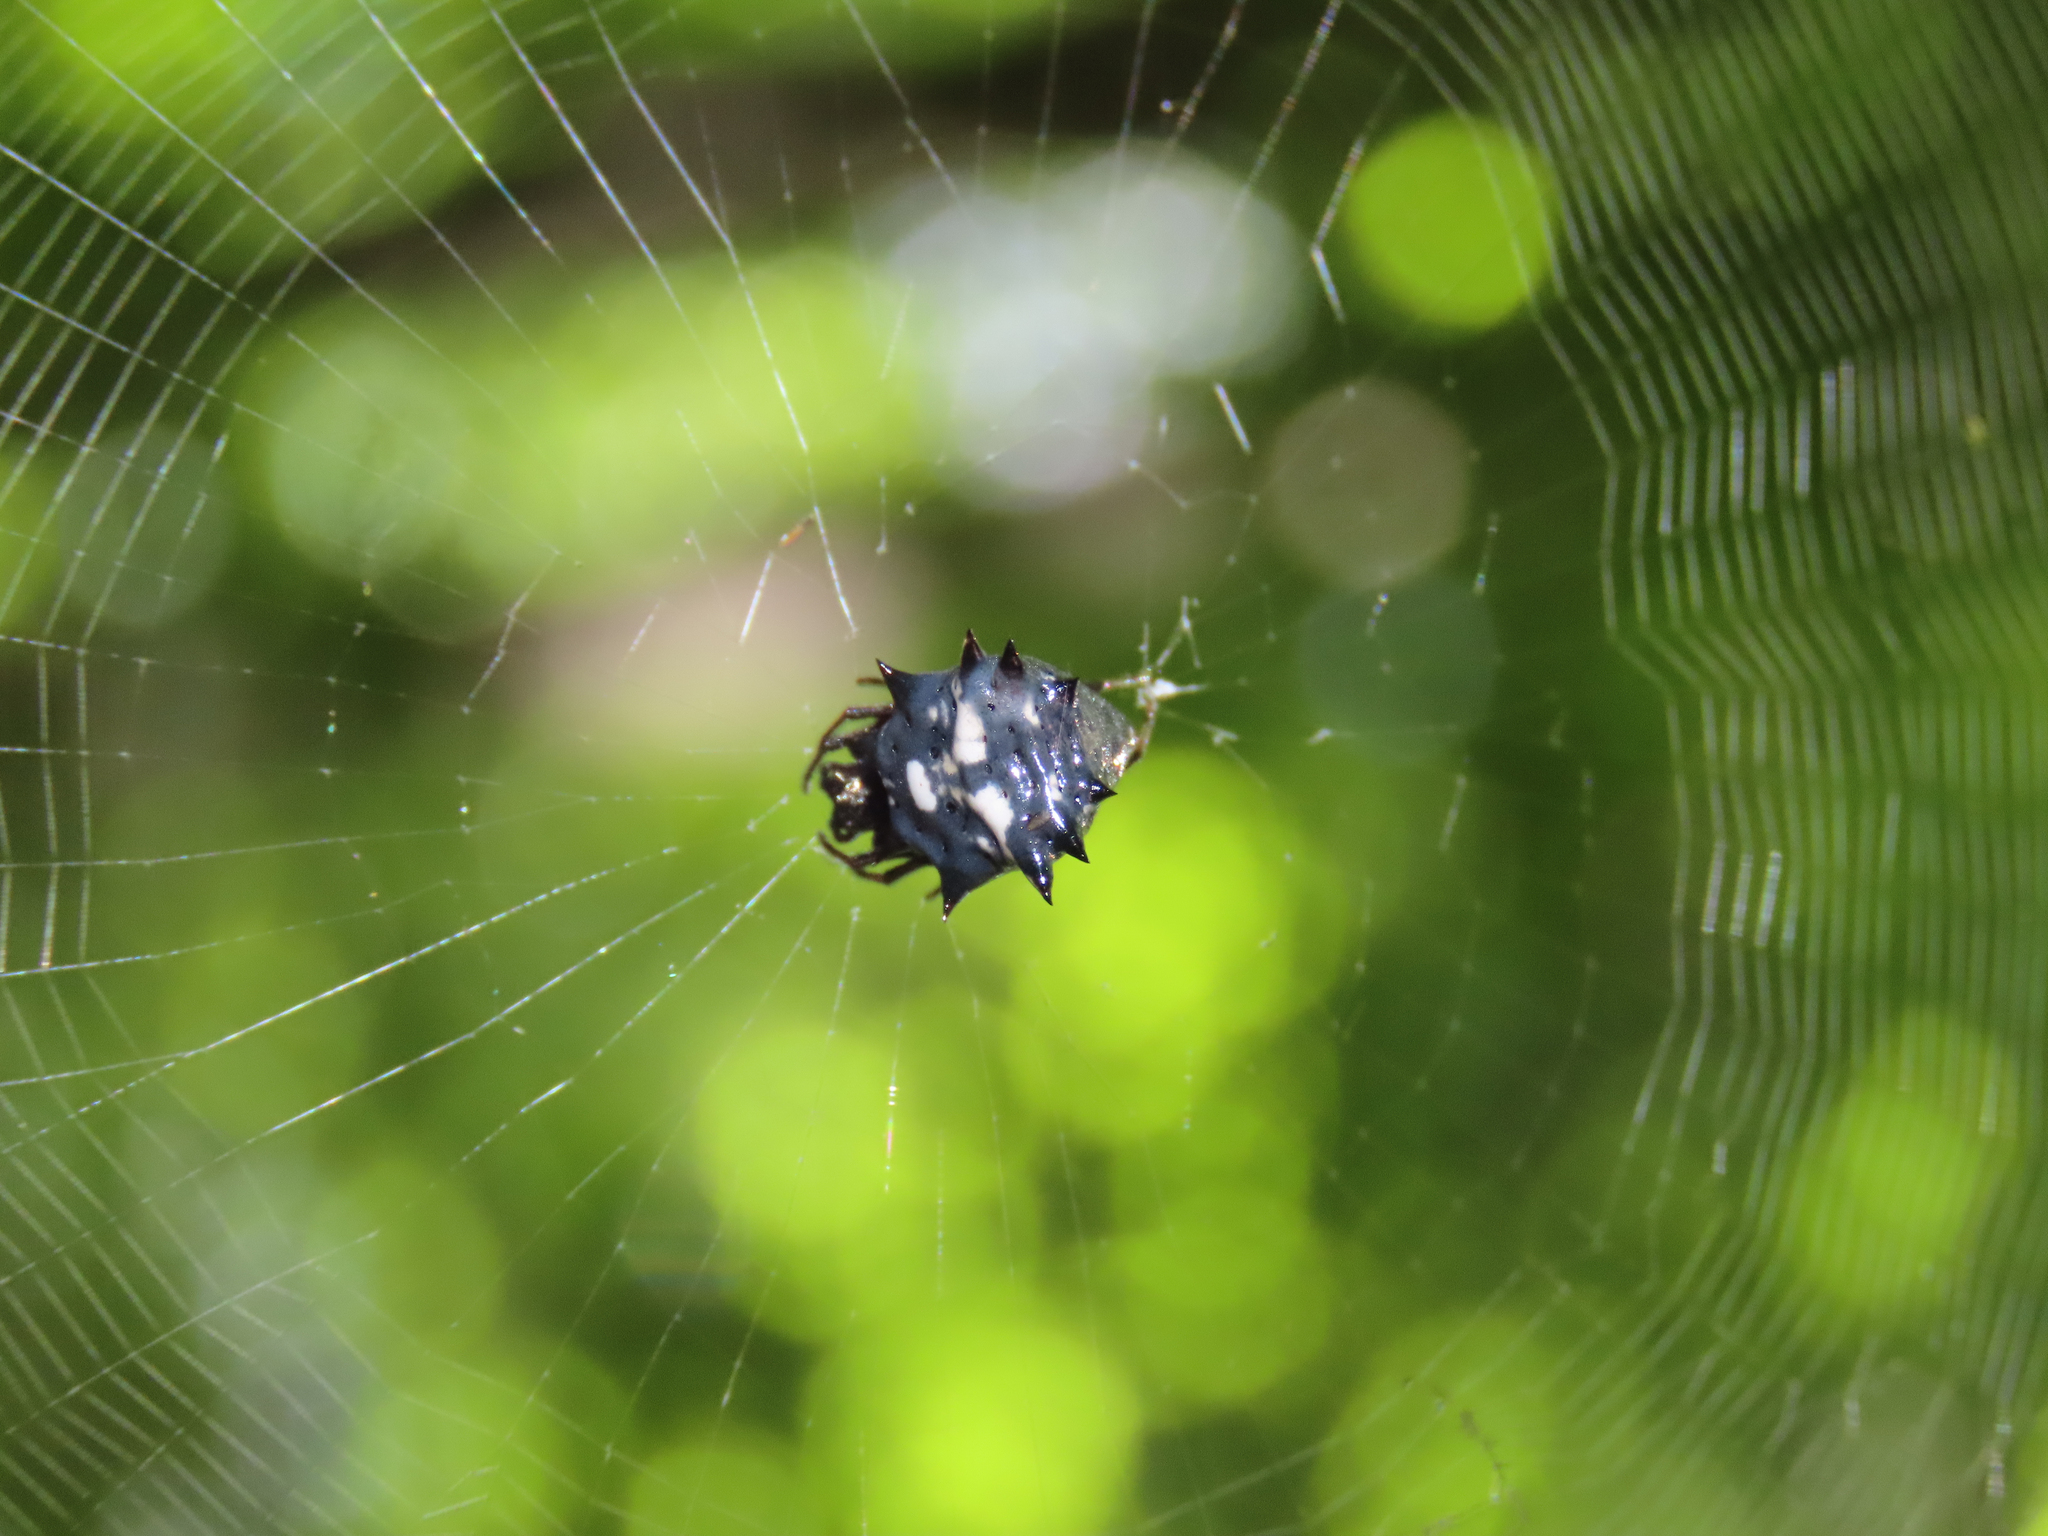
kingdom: Animalia
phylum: Arthropoda
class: Arachnida
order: Araneae
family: Araneidae
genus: Micrathena
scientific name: Micrathena gracilis
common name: Orb weavers
